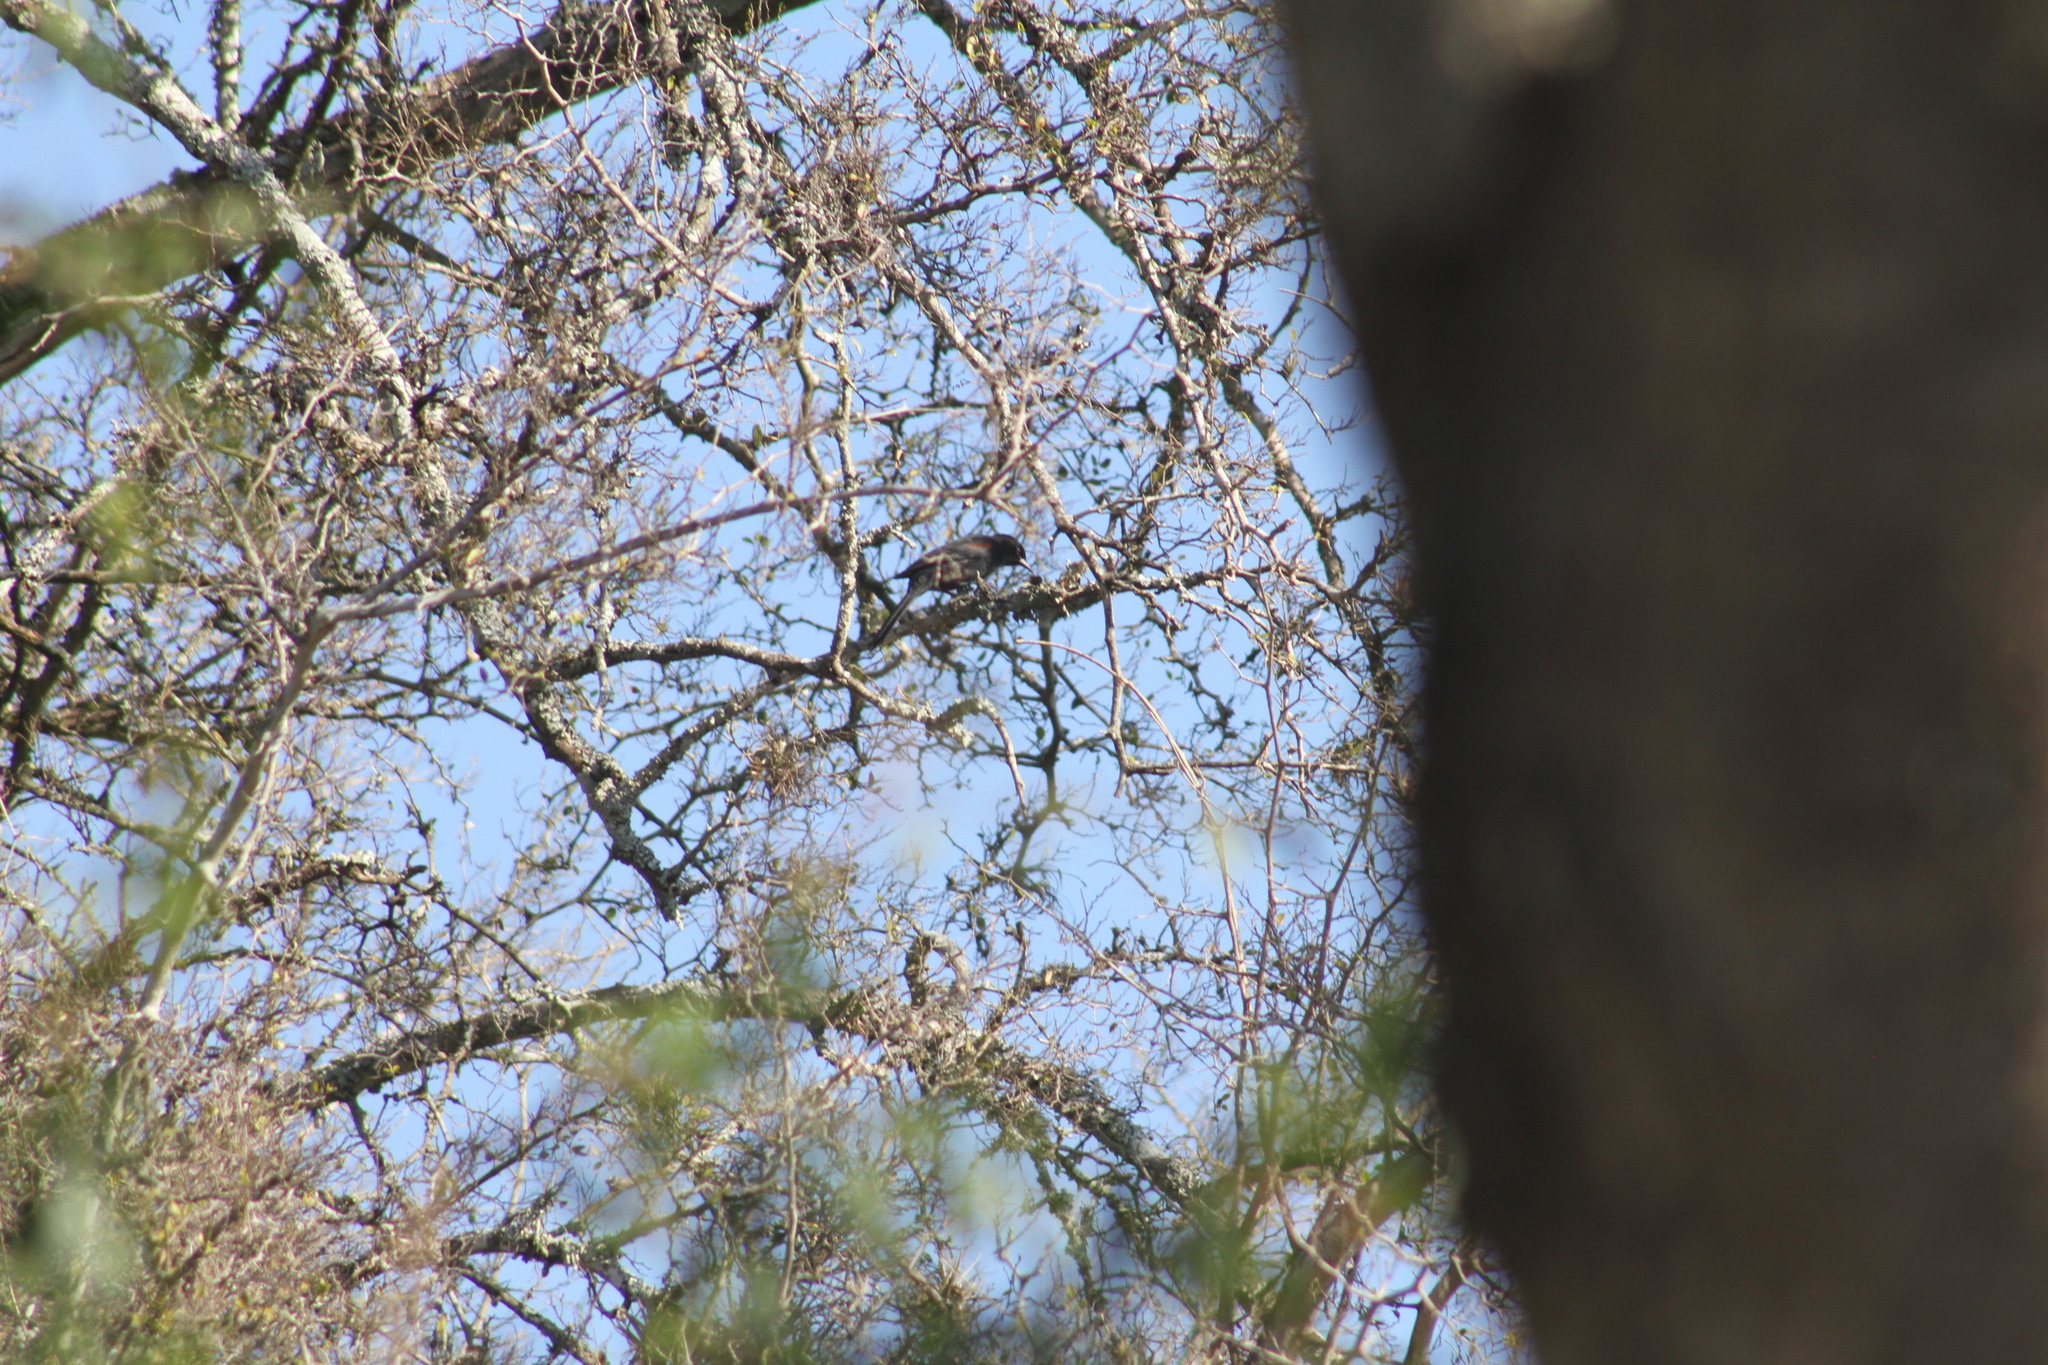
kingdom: Animalia
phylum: Chordata
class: Aves
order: Passeriformes
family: Icteridae
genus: Icterus
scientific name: Icterus cayanensis
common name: Epaulet oriole
